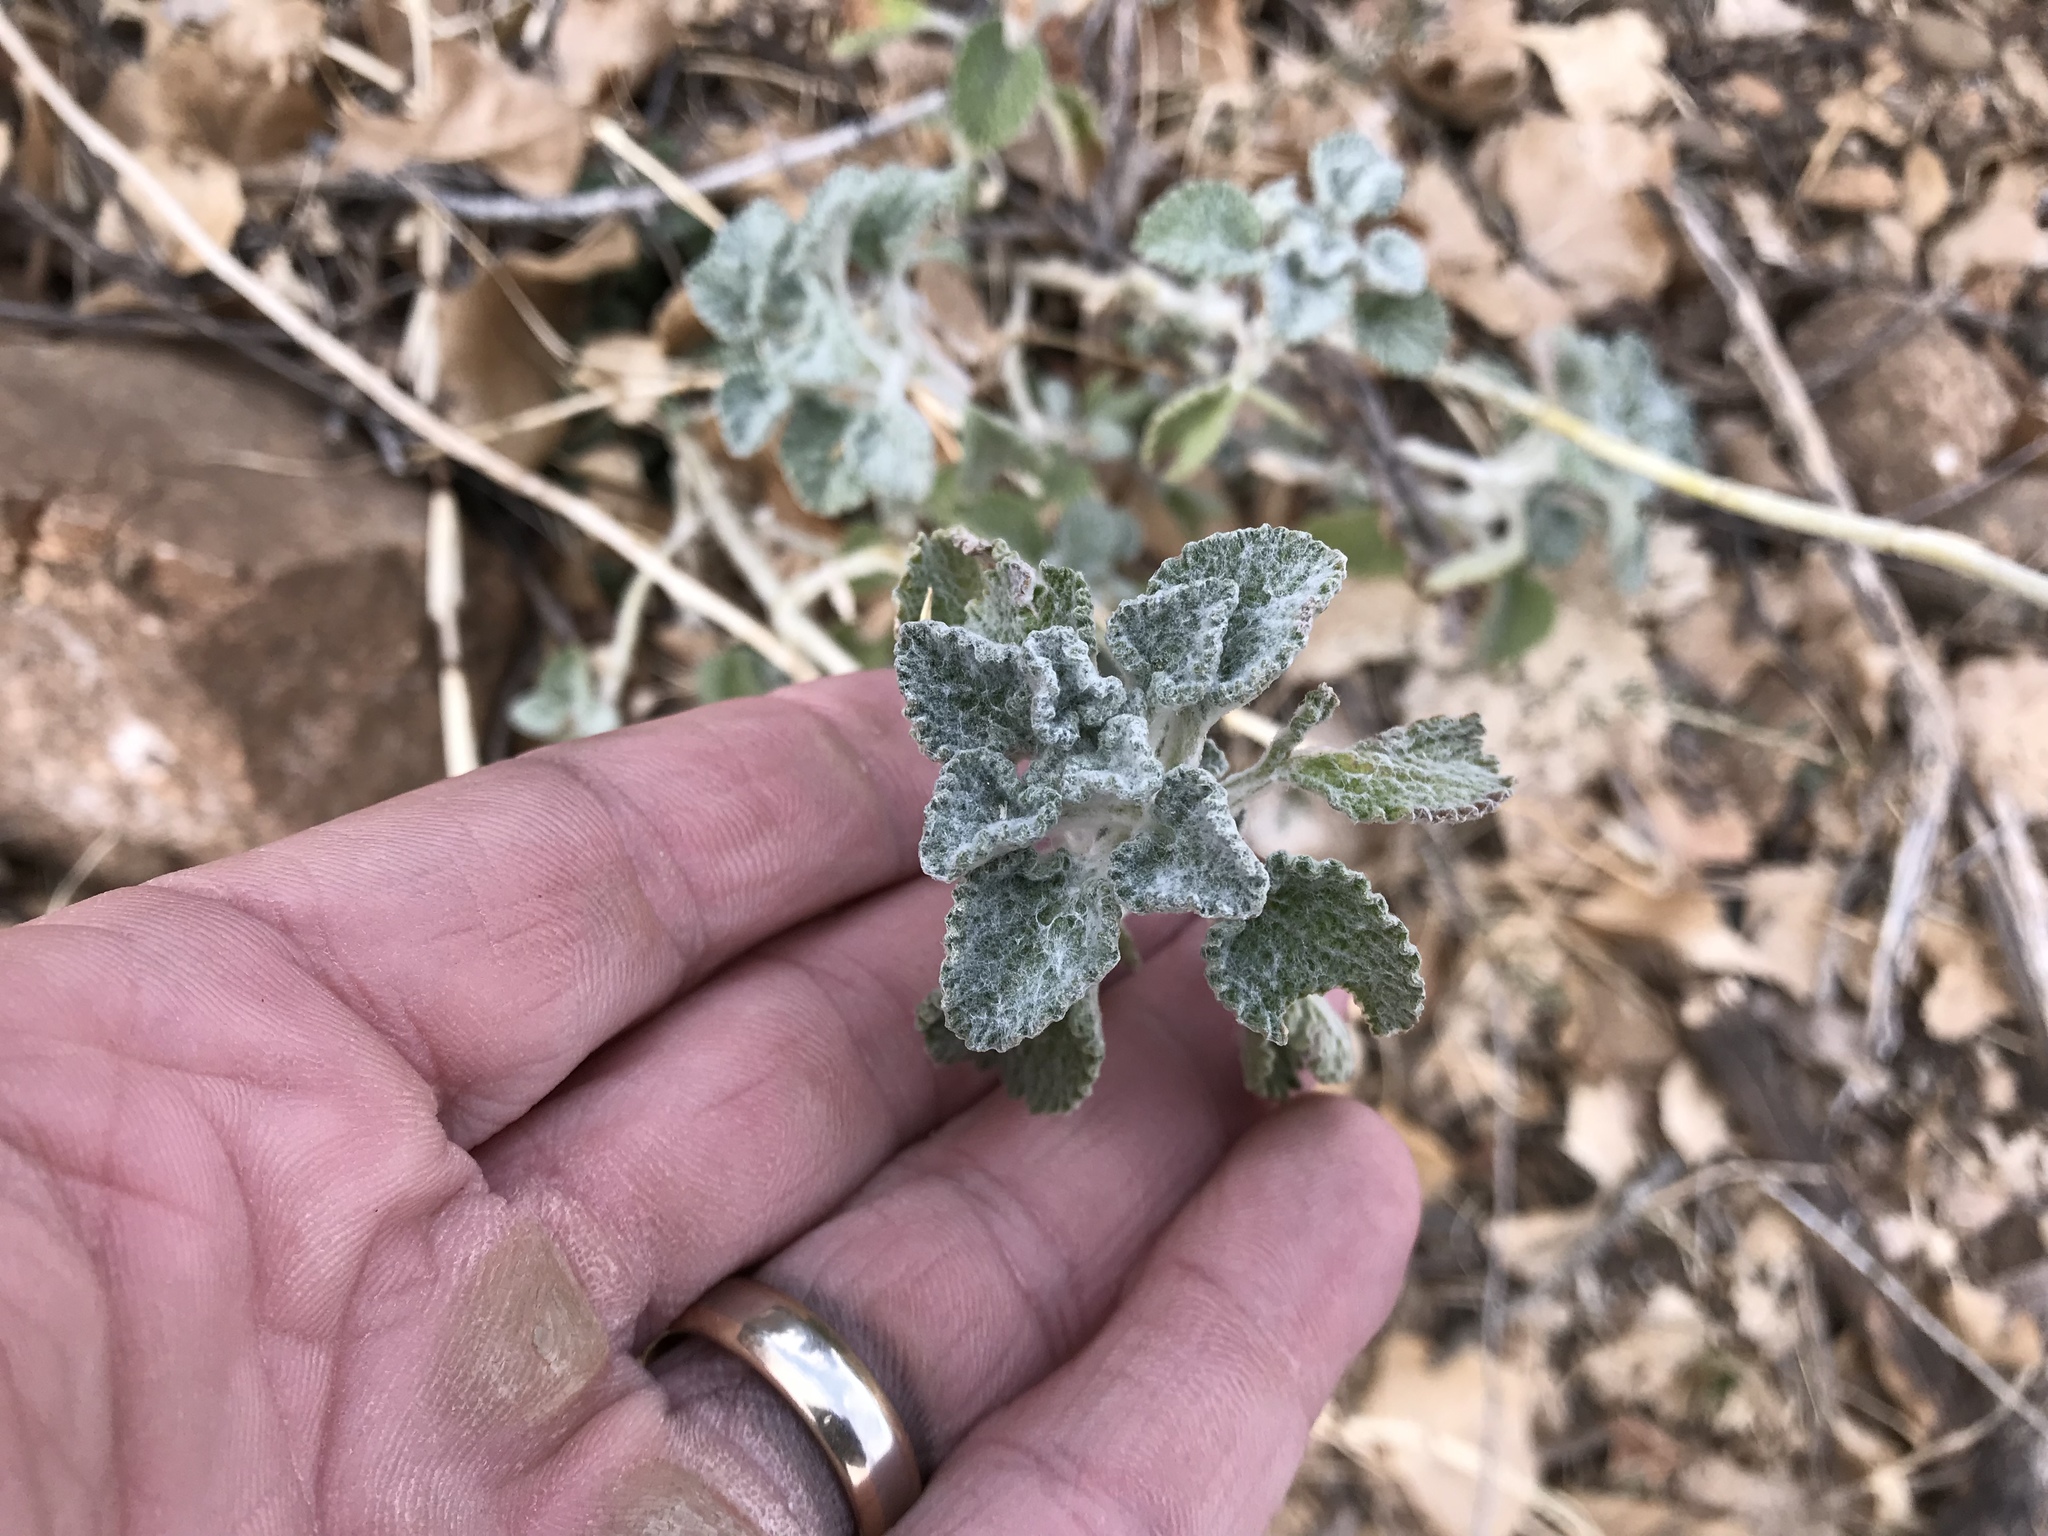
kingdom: Plantae
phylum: Tracheophyta
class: Magnoliopsida
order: Lamiales
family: Lamiaceae
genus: Marrubium
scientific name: Marrubium vulgare
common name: Horehound
